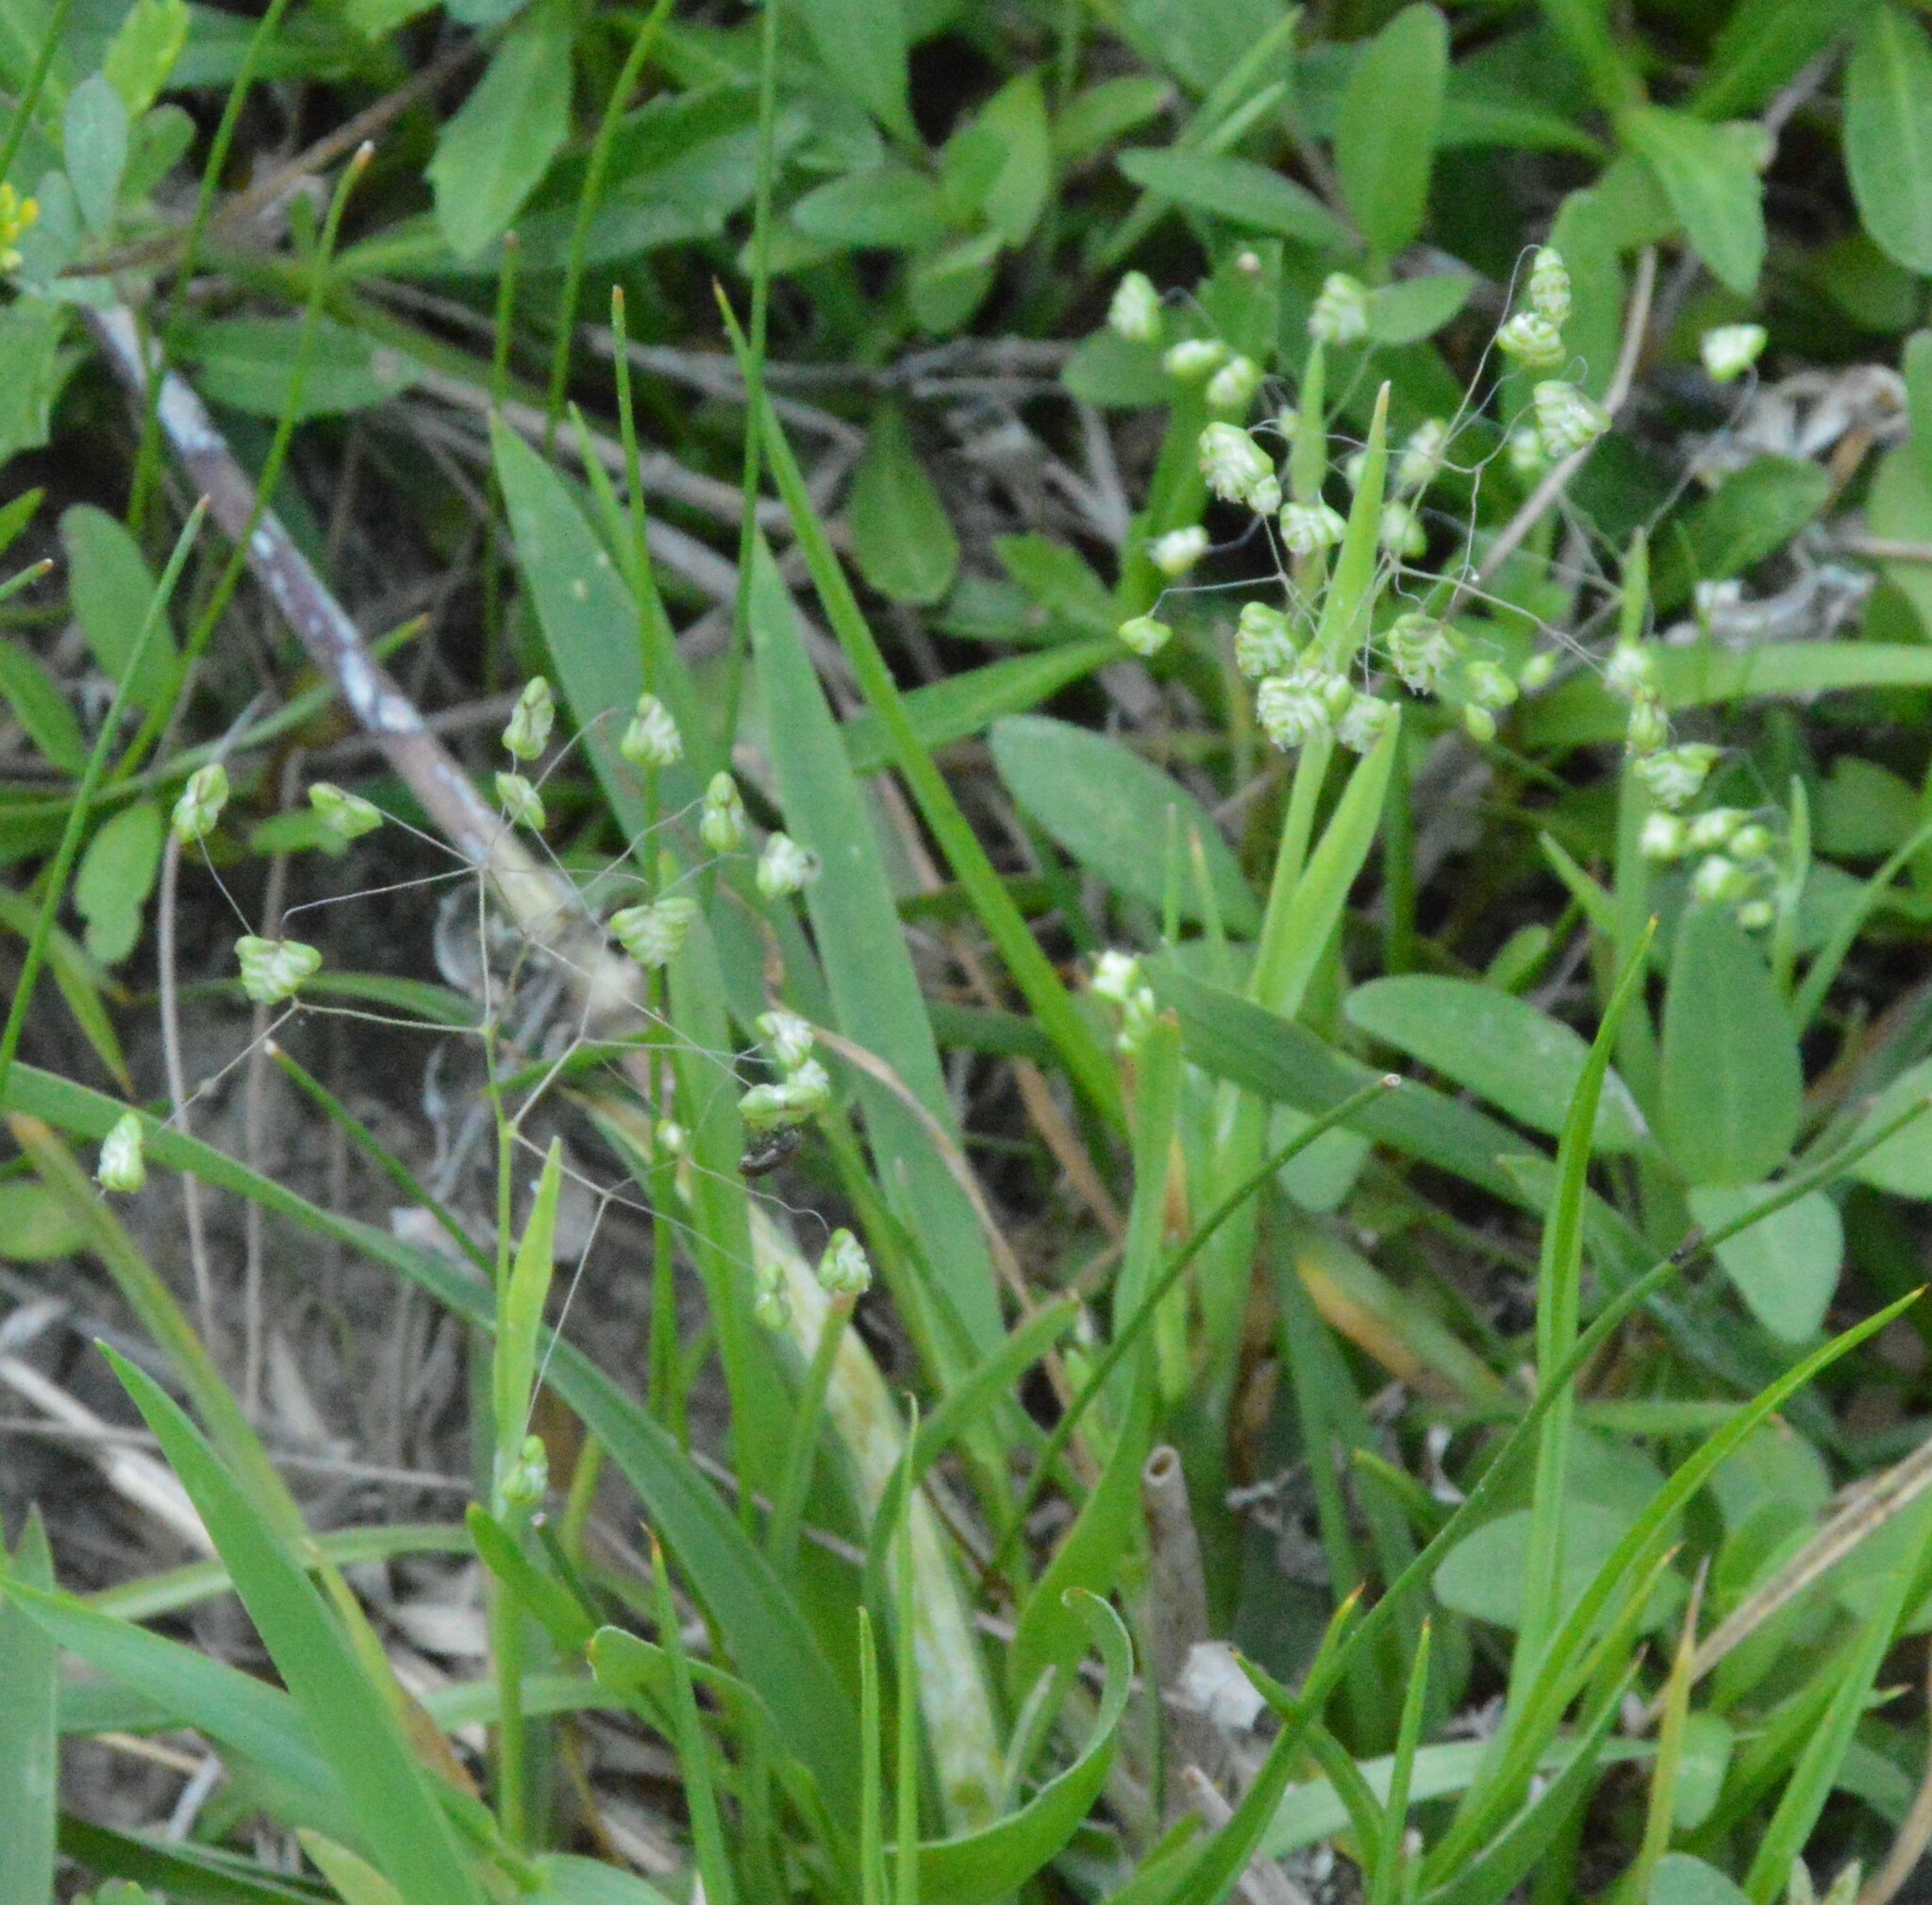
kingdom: Plantae
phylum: Tracheophyta
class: Liliopsida
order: Poales
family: Poaceae
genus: Briza
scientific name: Briza minor
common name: Lesser quaking-grass
